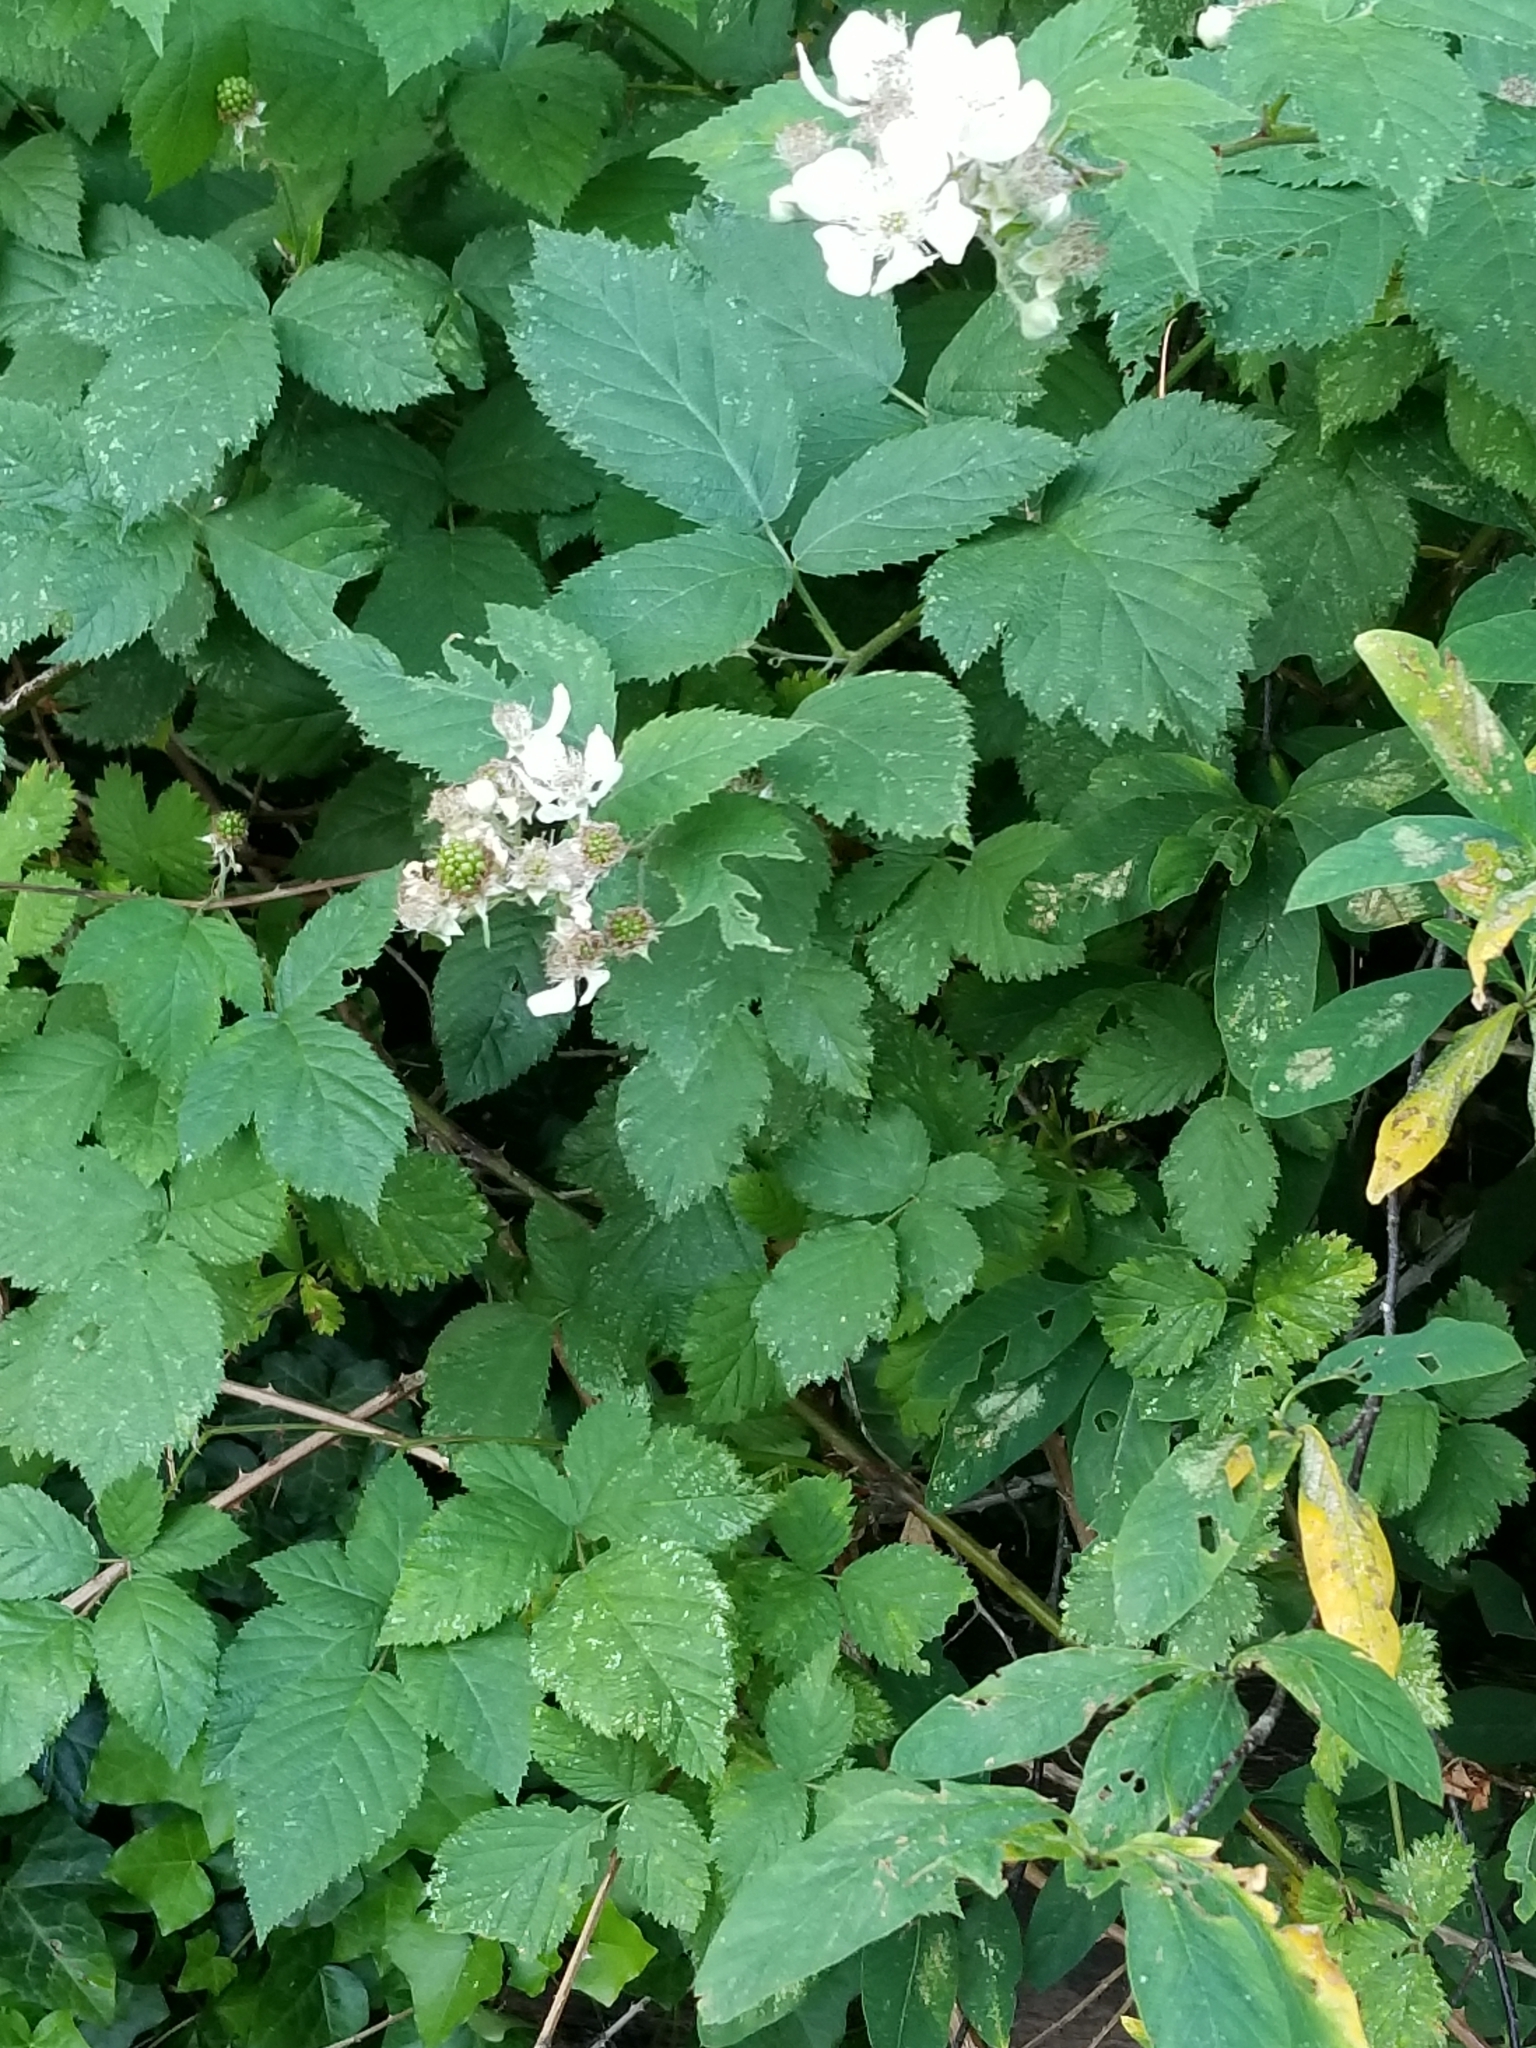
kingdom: Plantae
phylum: Tracheophyta
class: Magnoliopsida
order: Rosales
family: Rosaceae
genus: Rubus
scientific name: Rubus armeniacus
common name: Himalayan blackberry
